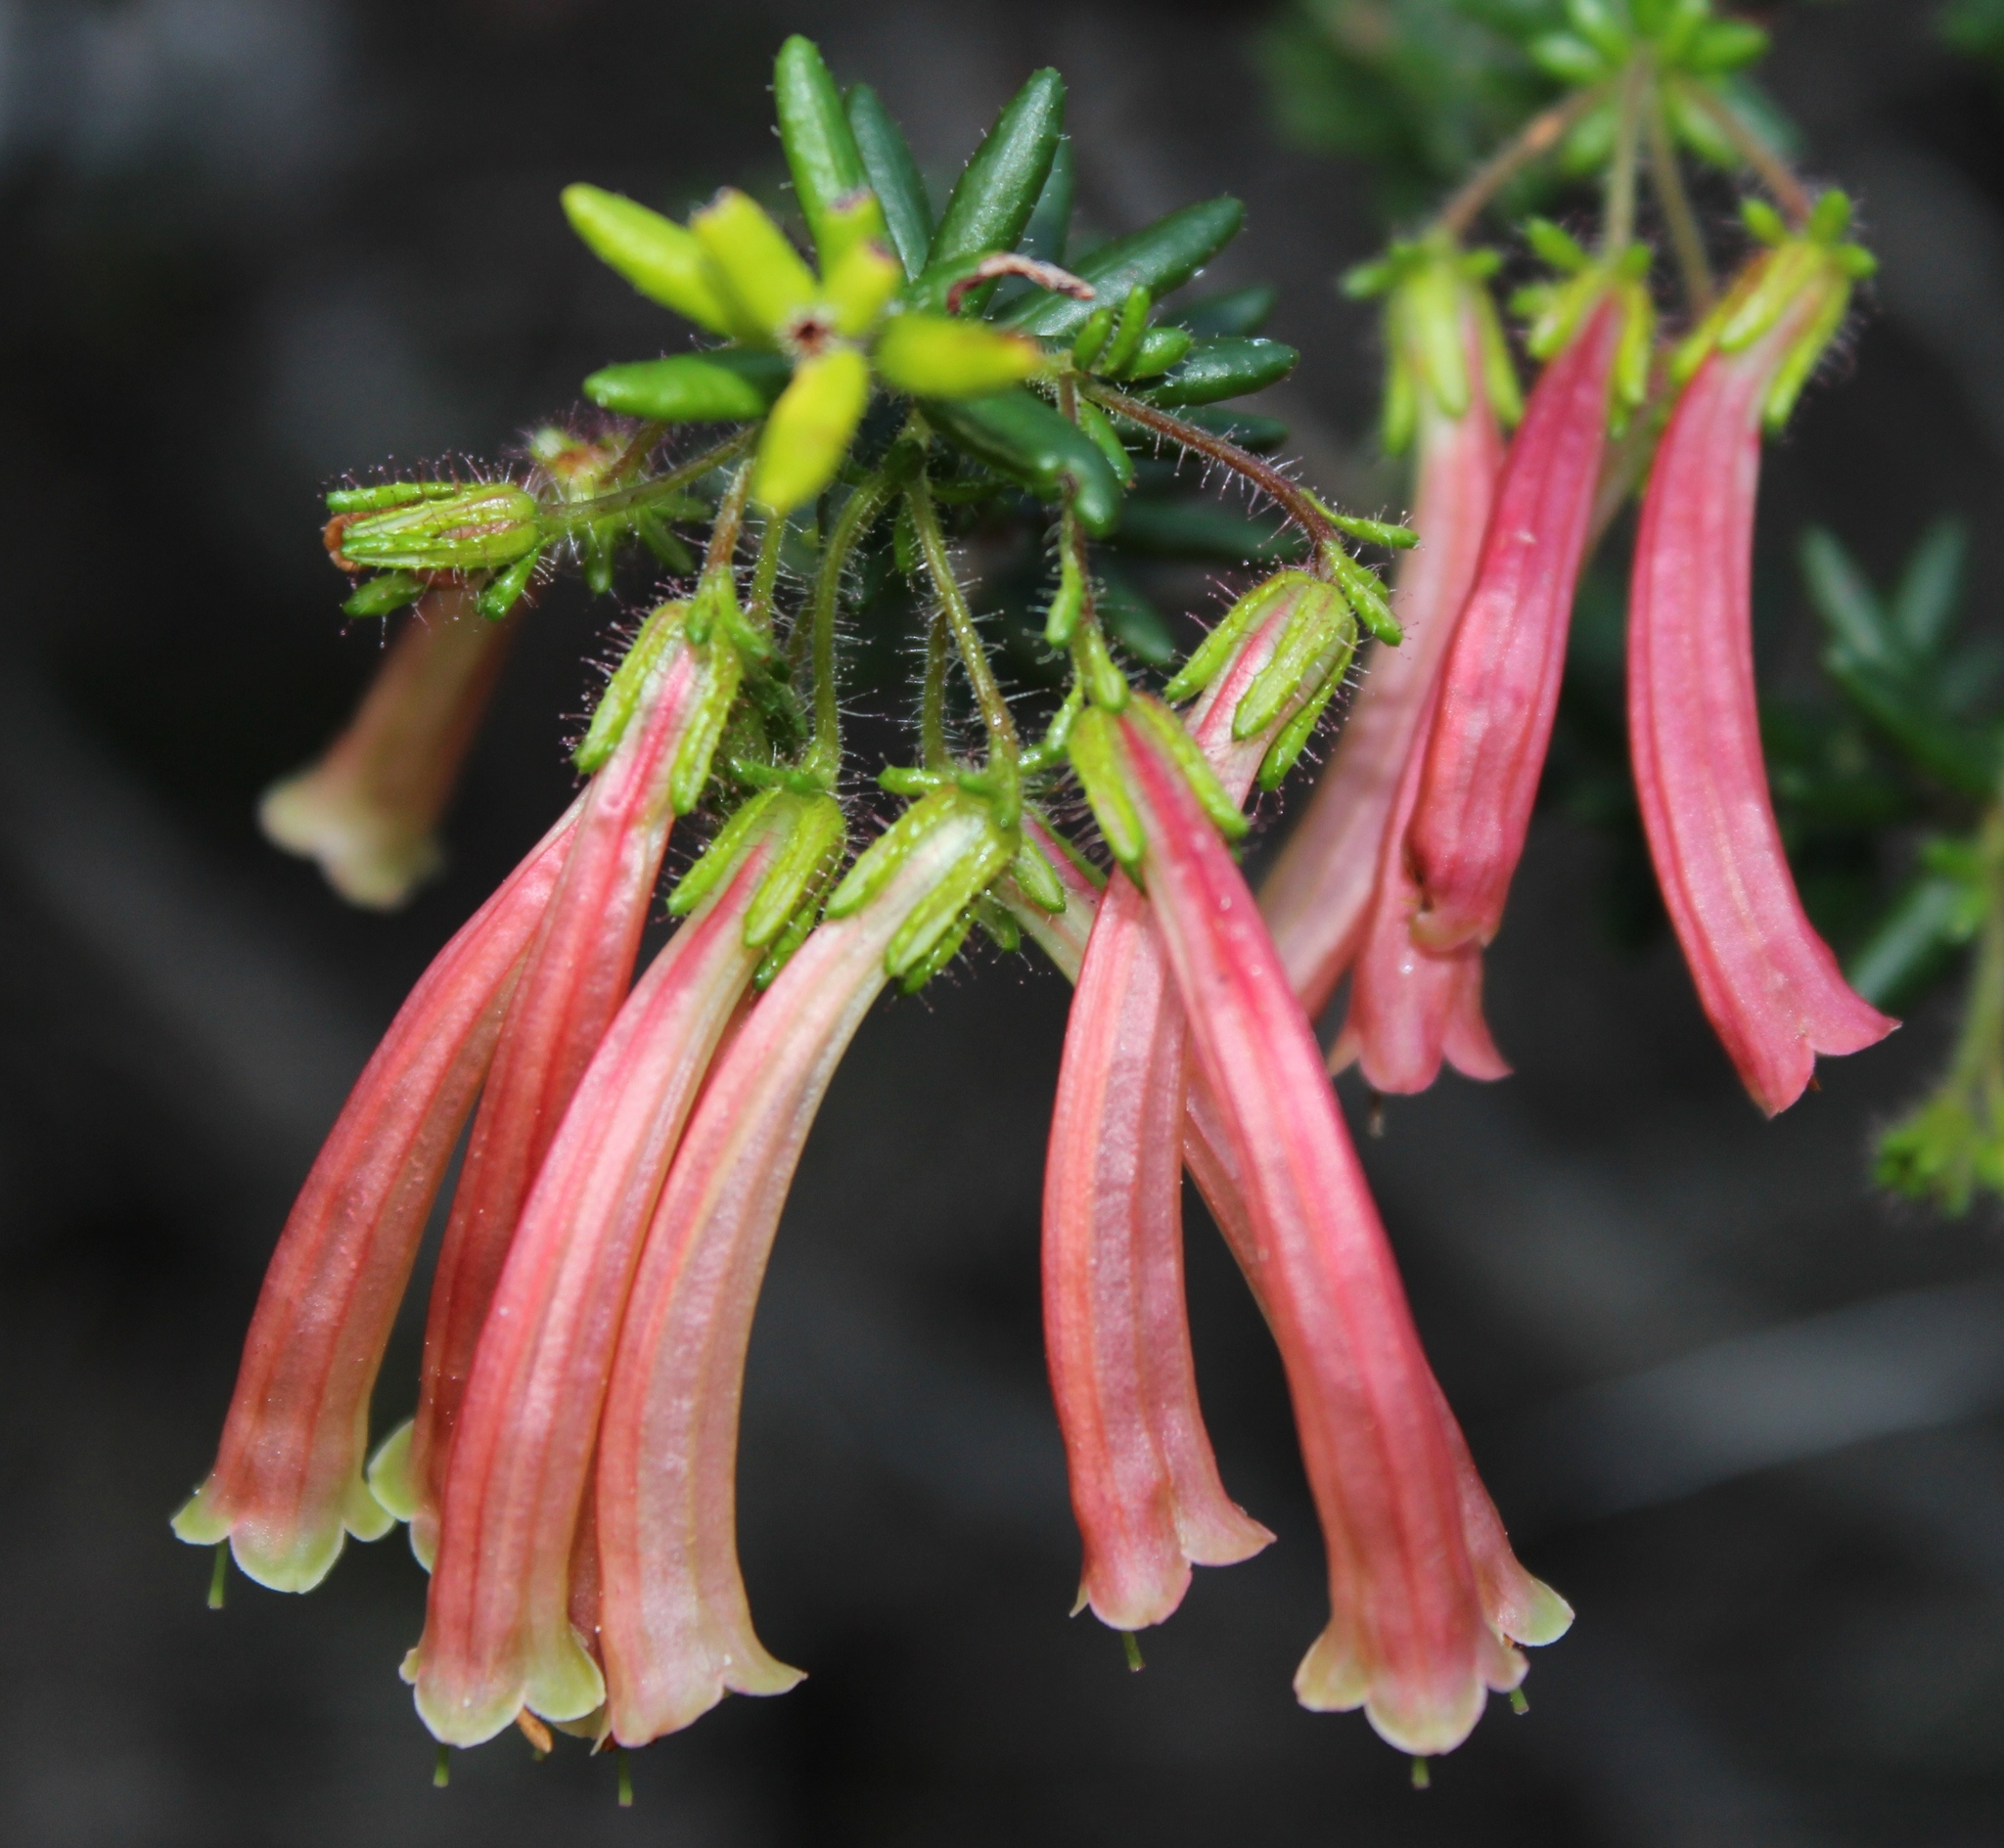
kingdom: Plantae
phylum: Tracheophyta
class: Magnoliopsida
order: Ericales
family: Ericaceae
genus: Erica
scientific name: Erica glandulosa
